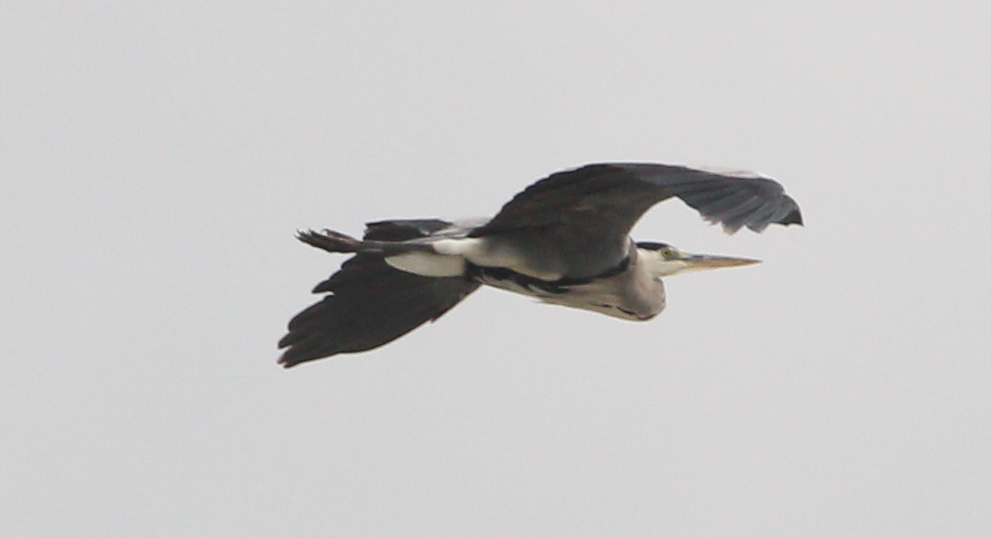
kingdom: Animalia
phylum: Chordata
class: Aves
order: Pelecaniformes
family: Ardeidae
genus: Ardea
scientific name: Ardea cinerea
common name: Grey heron
